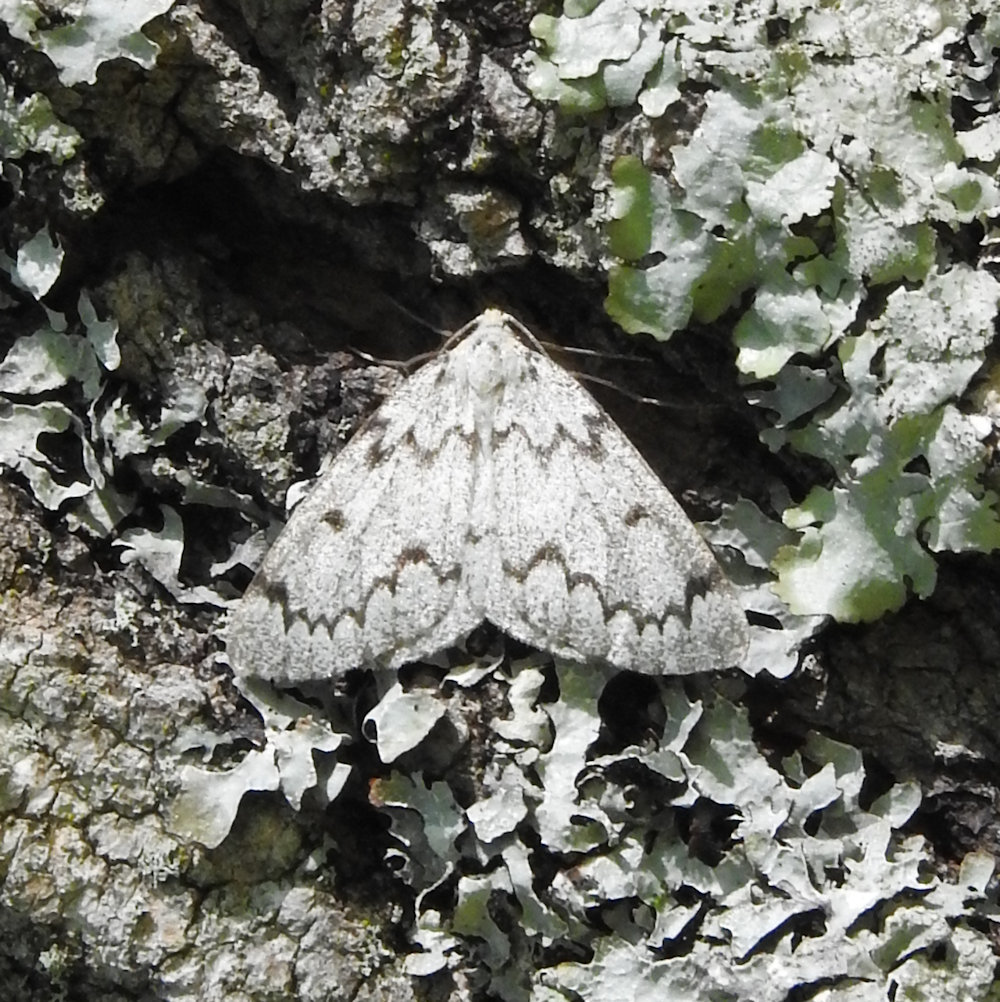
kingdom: Animalia
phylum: Arthropoda
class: Insecta
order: Lepidoptera
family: Geometridae
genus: Nepytia
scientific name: Nepytia canosaria
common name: False hemlock looper
